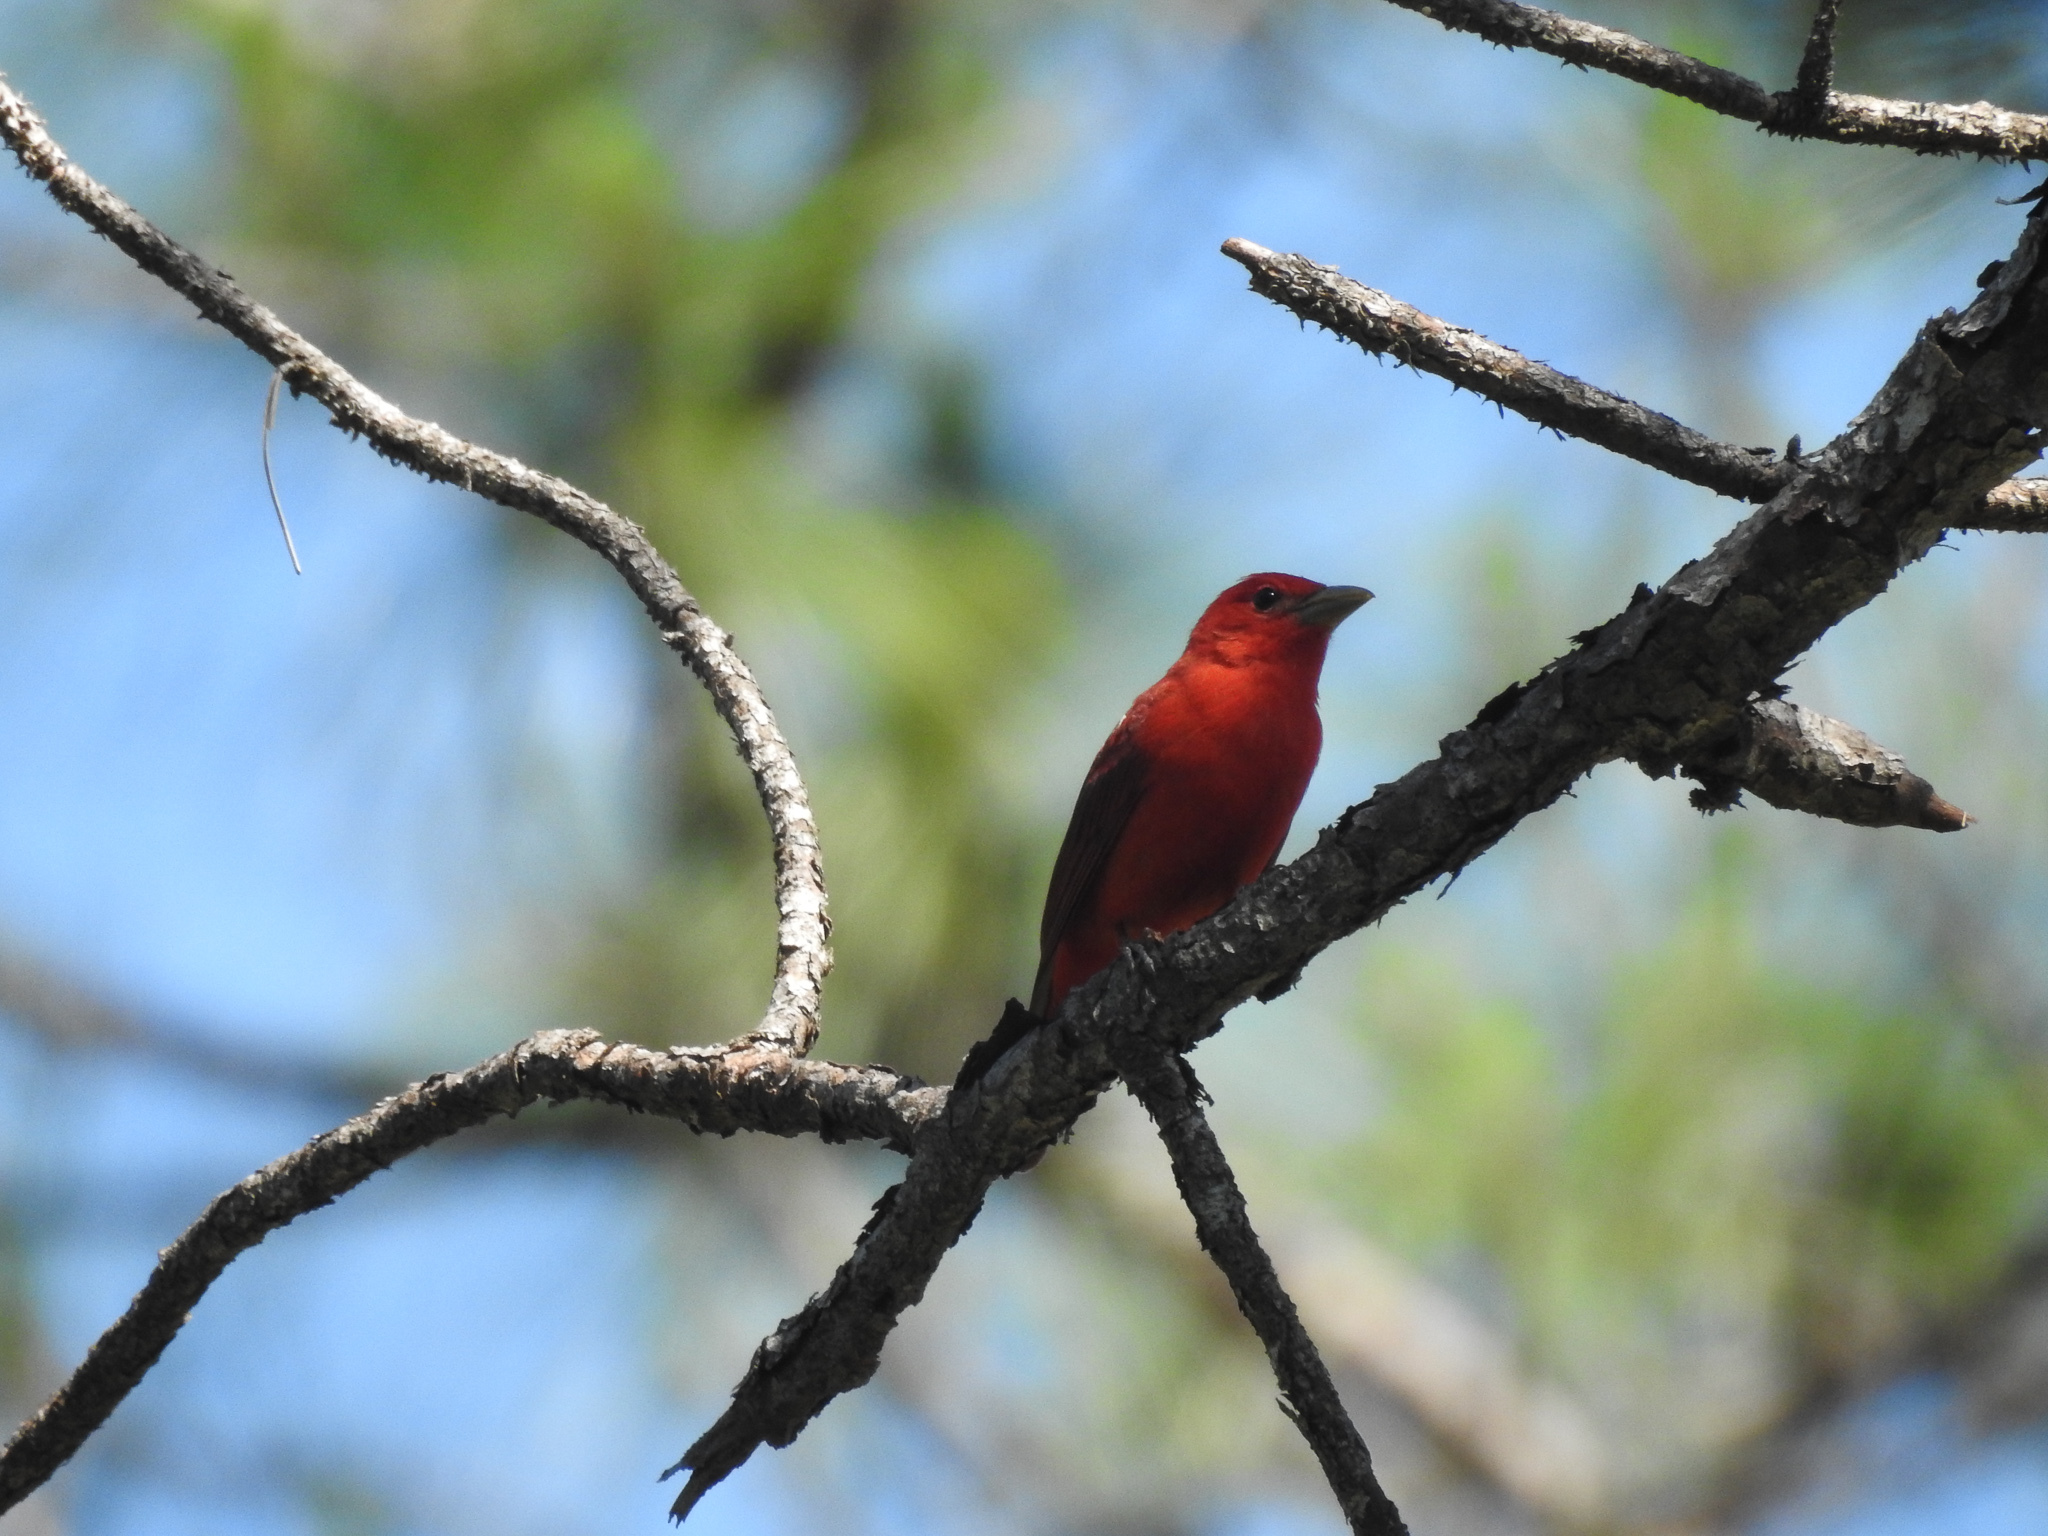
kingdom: Animalia
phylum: Chordata
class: Aves
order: Passeriformes
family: Cardinalidae
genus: Piranga
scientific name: Piranga rubra
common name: Summer tanager
